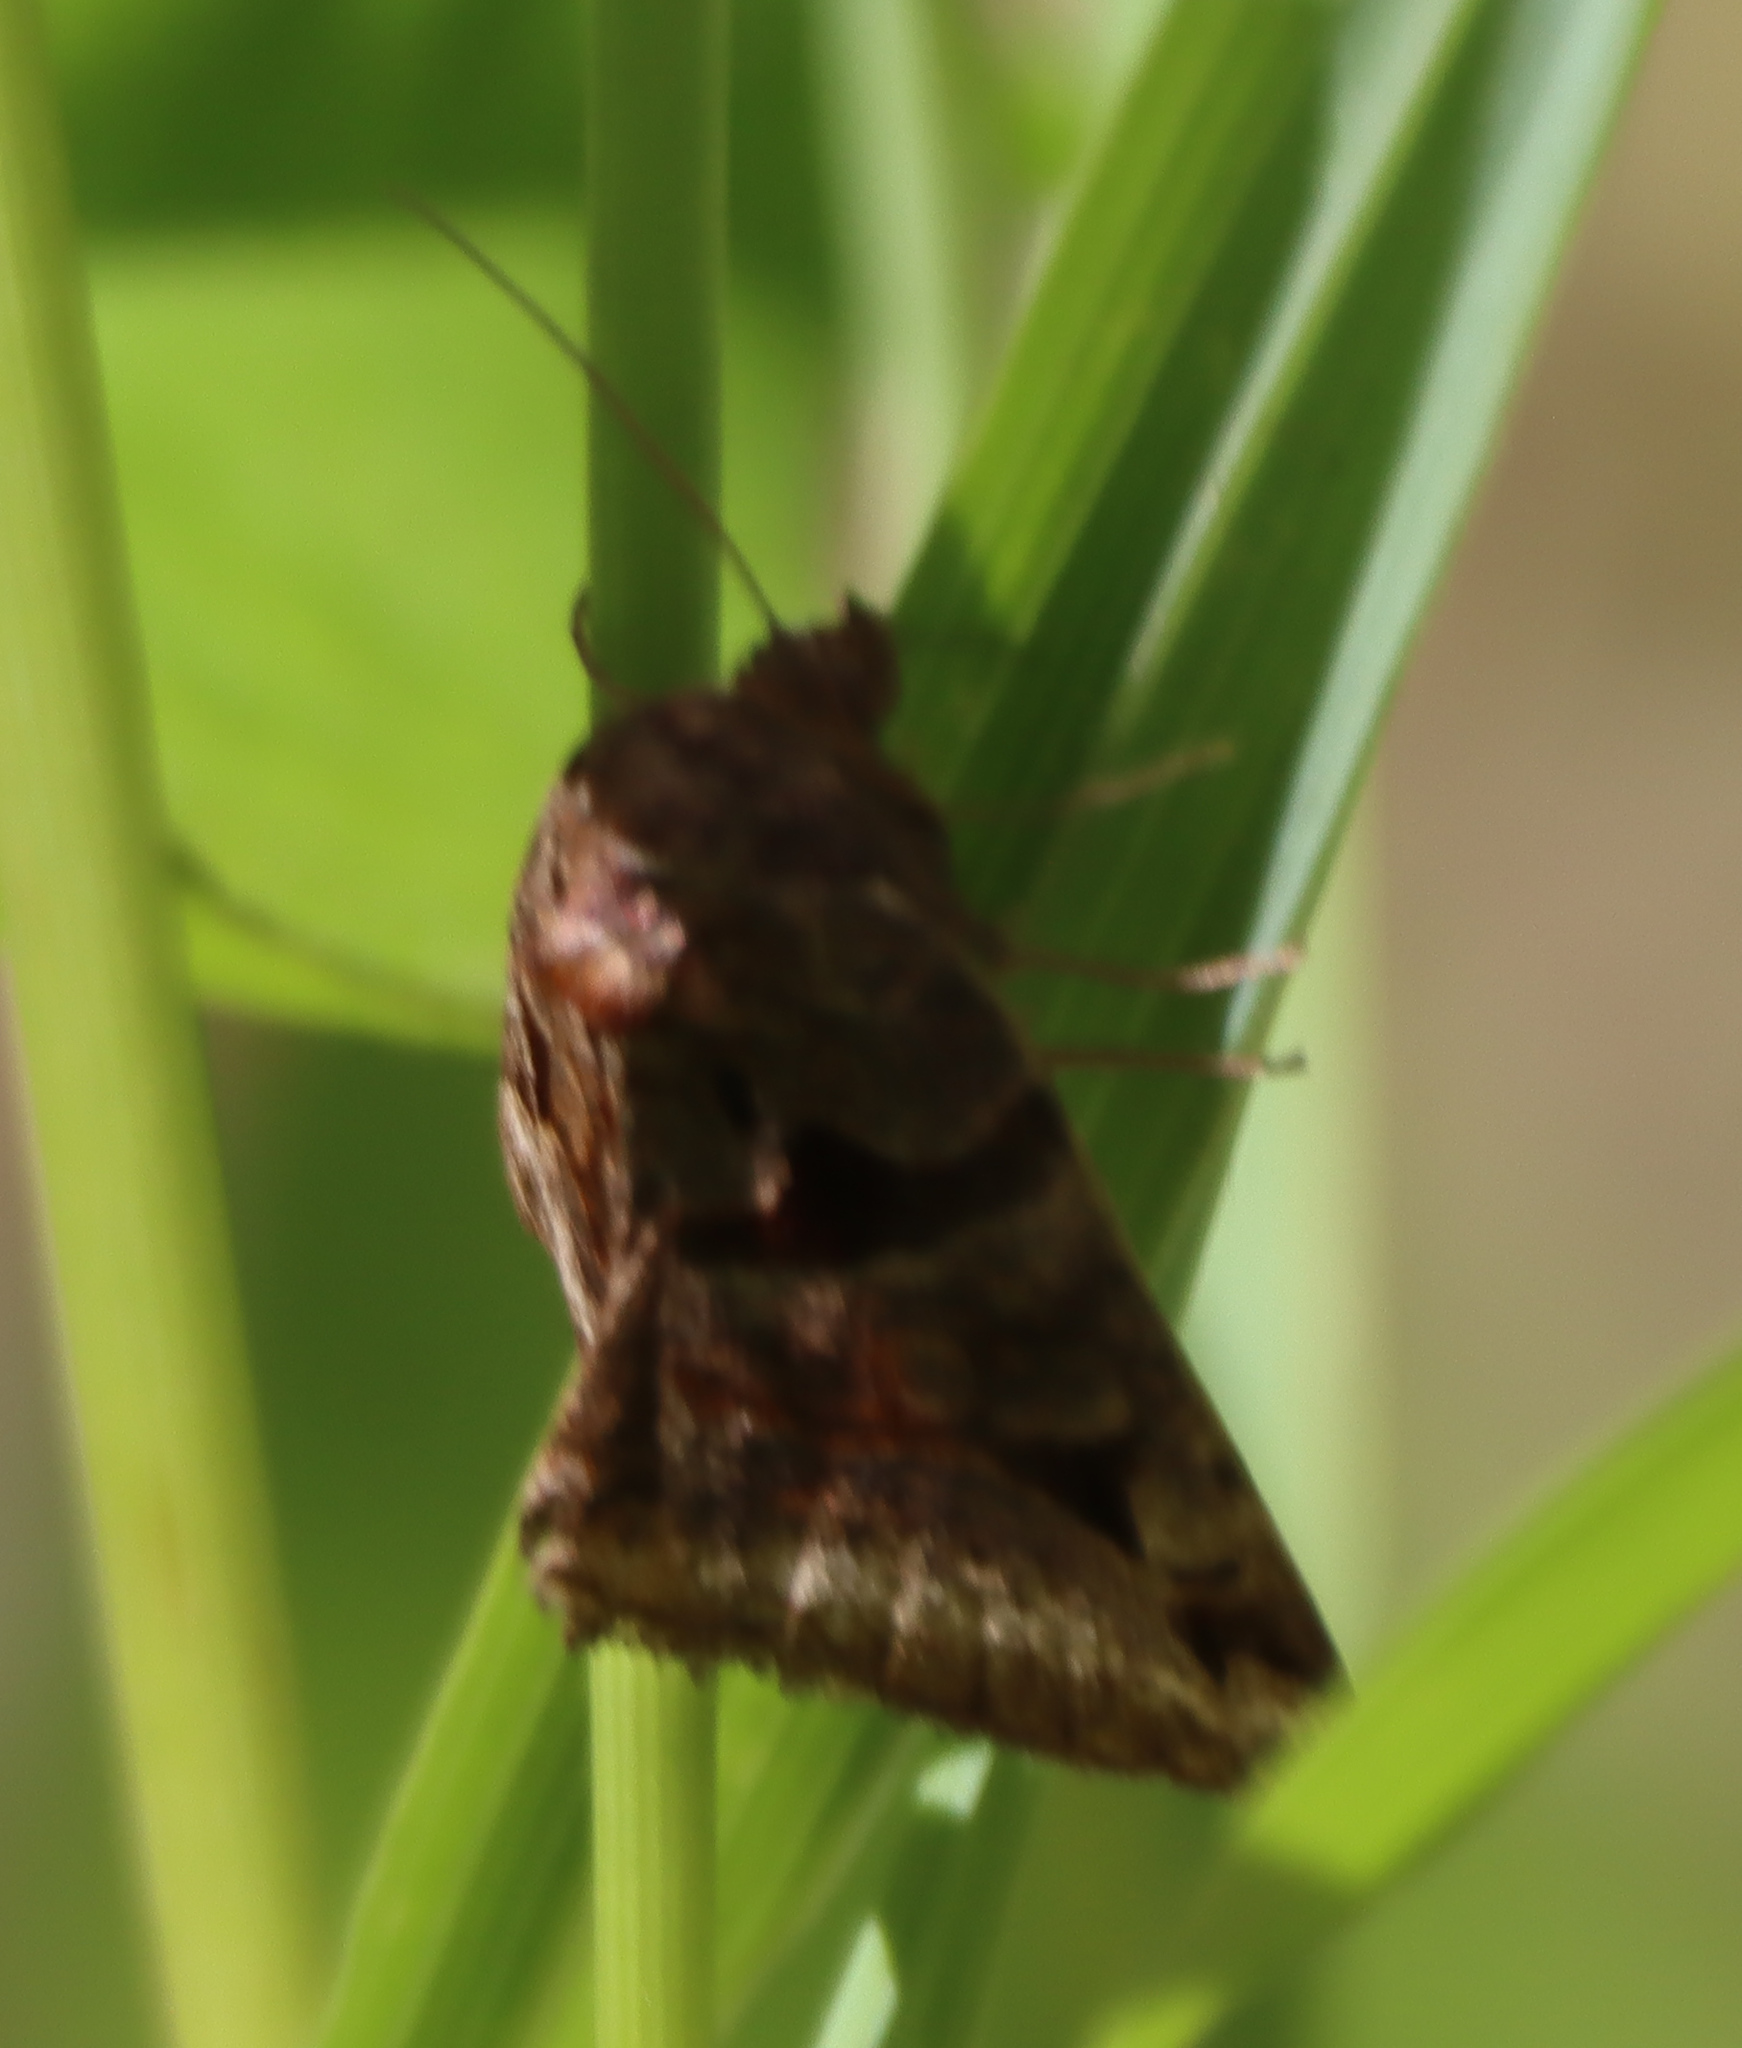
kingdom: Animalia
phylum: Arthropoda
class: Insecta
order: Lepidoptera
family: Erebidae
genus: Euclidia
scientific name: Euclidia cuspidea
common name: Toothed somberwing
